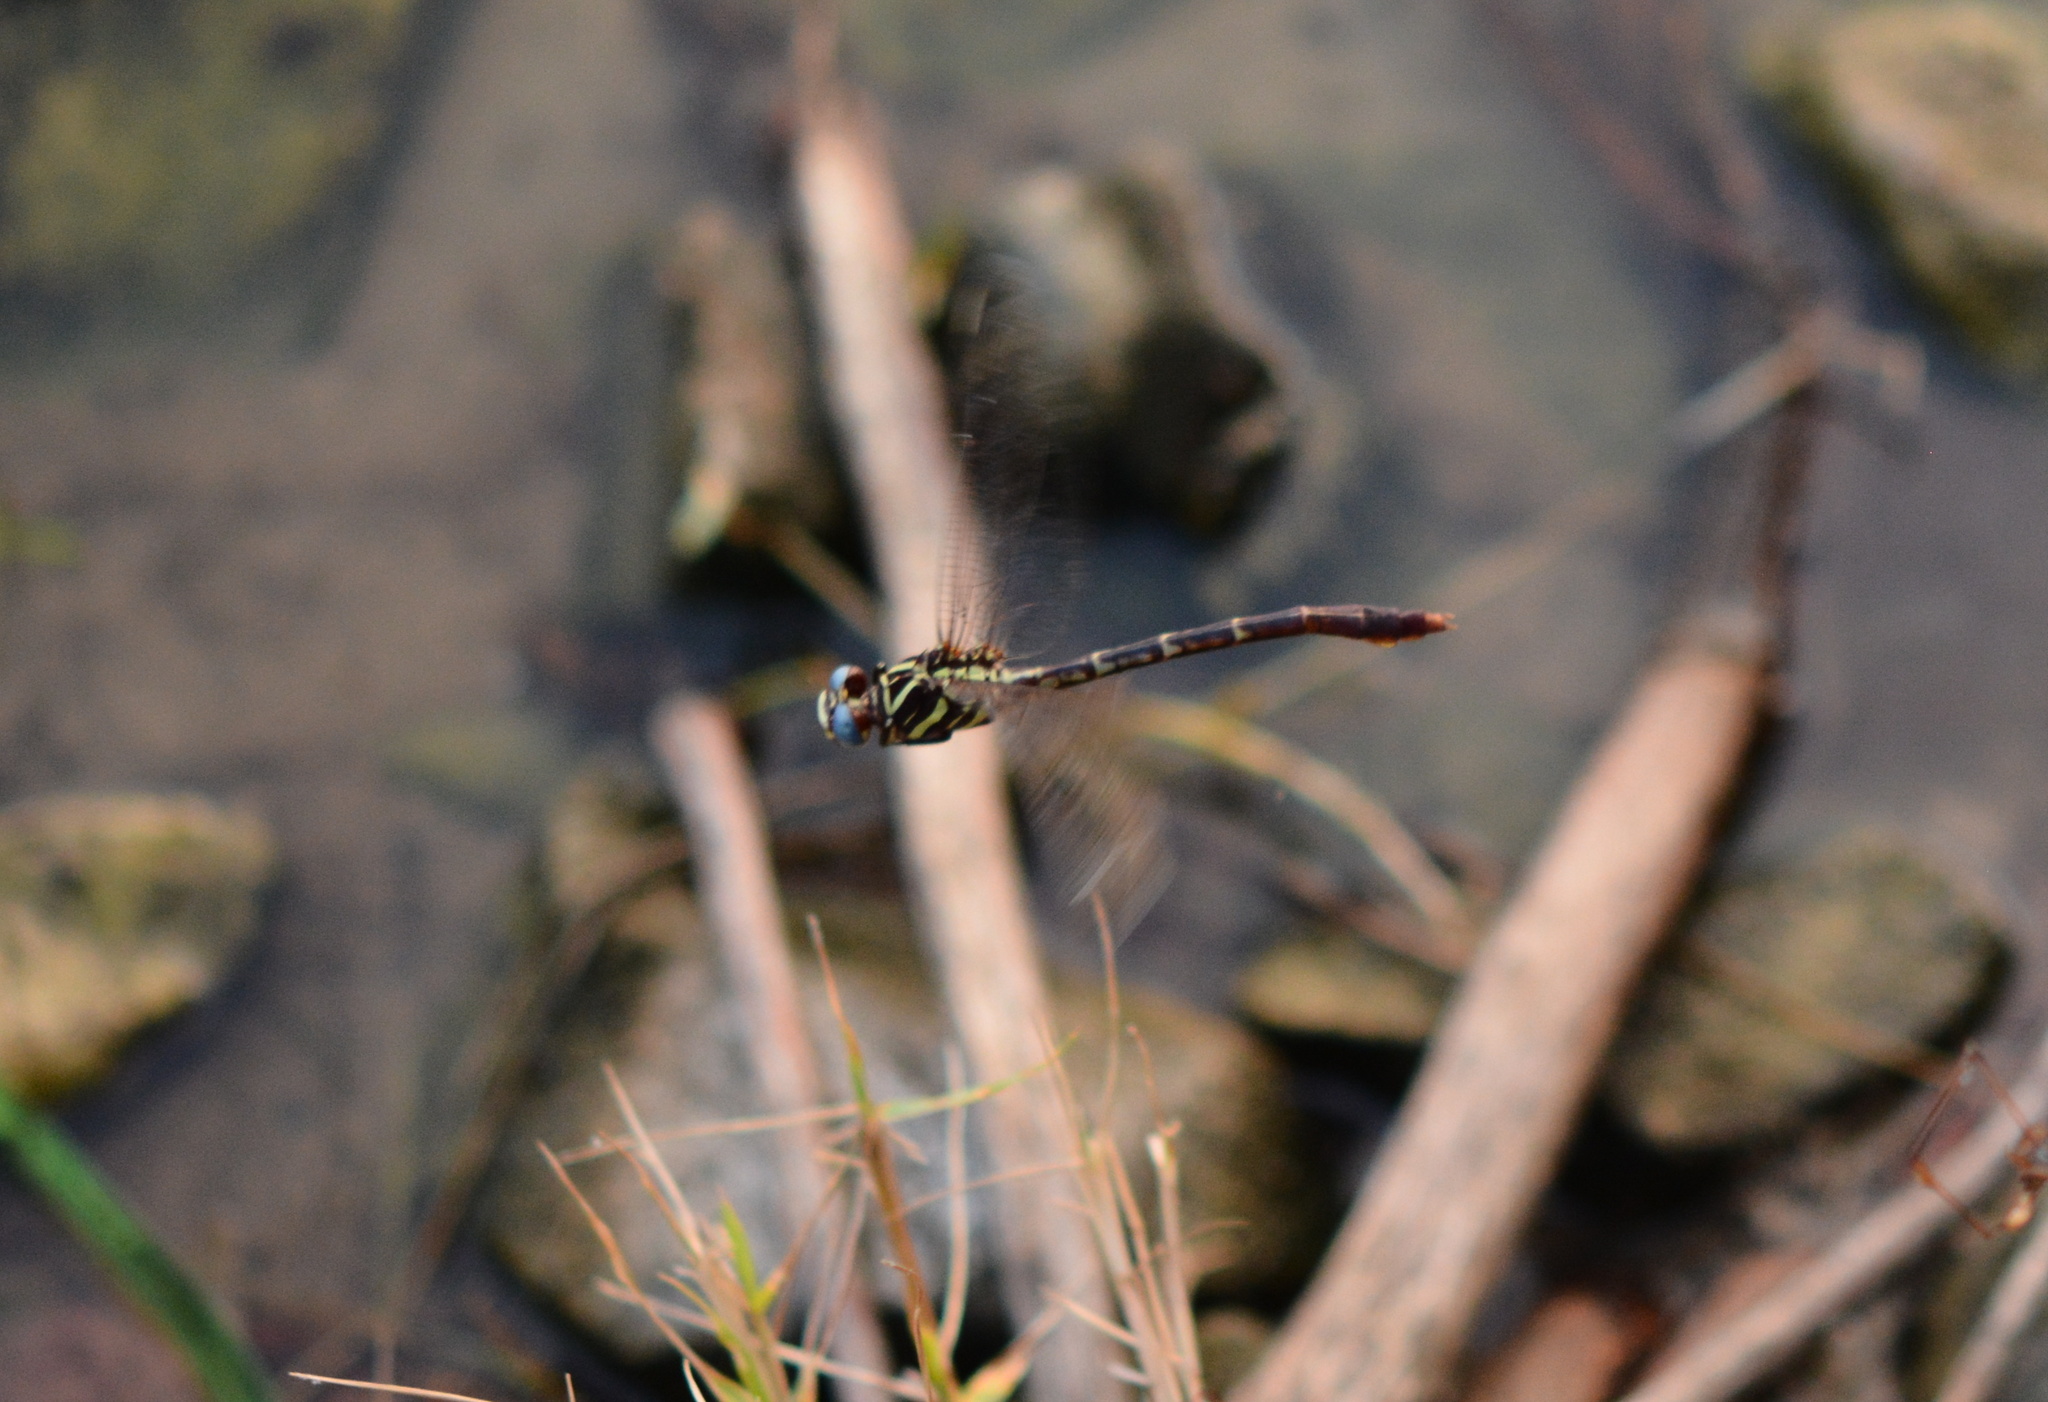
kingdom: Animalia
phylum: Arthropoda
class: Insecta
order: Odonata
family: Gomphidae
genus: Aphylla
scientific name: Aphylla williamsoni
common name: Two-striped forceptail
